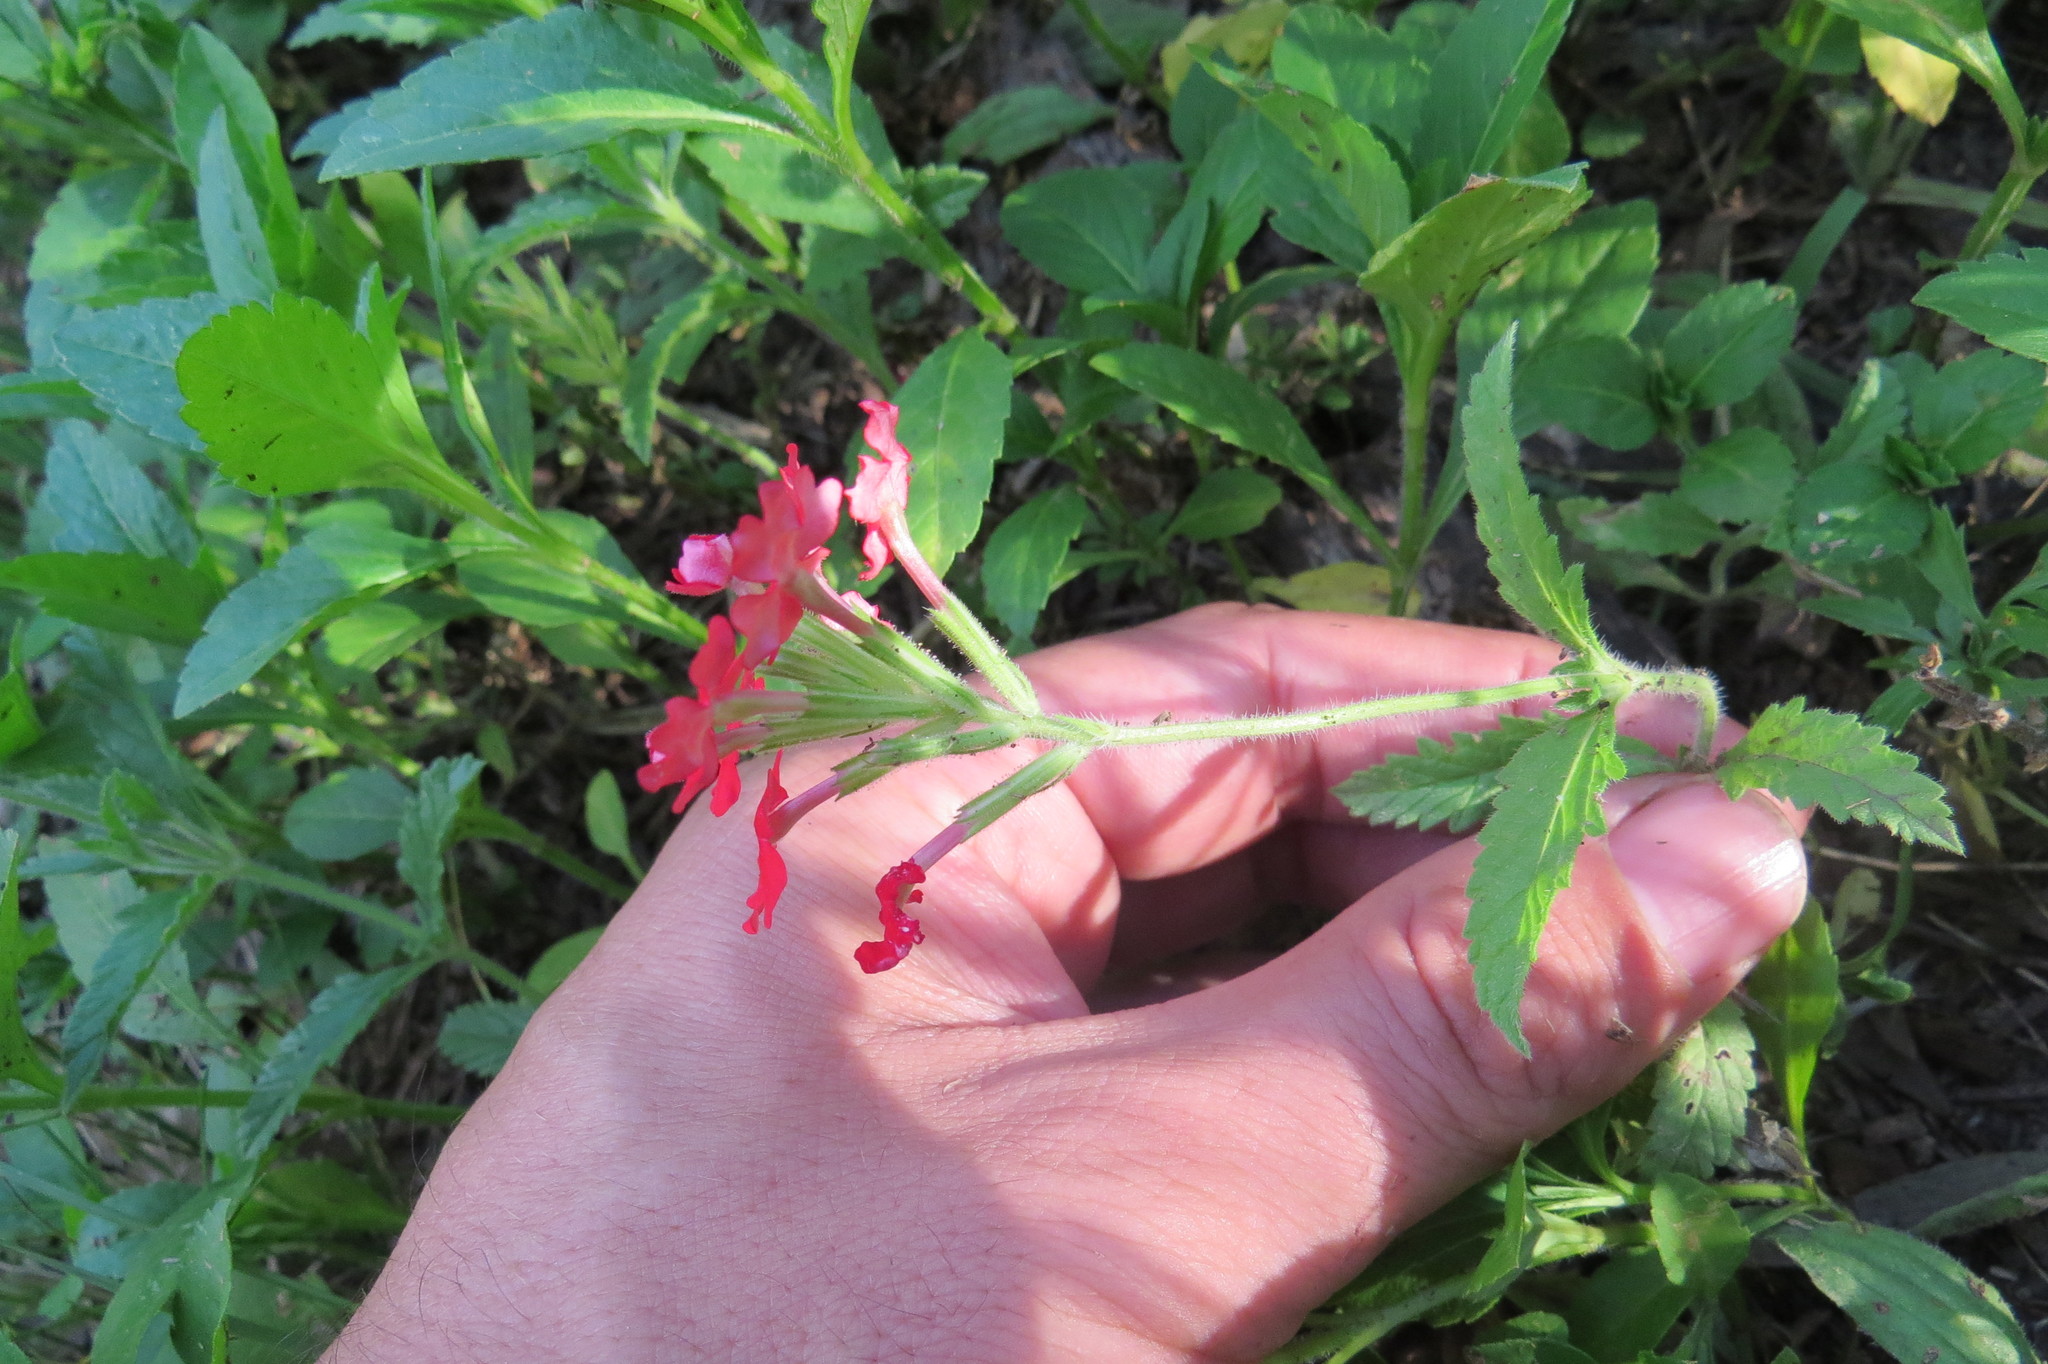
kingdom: Plantae
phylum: Tracheophyta
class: Magnoliopsida
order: Lamiales
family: Verbenaceae
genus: Verbena
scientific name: Verbena tweedieana
